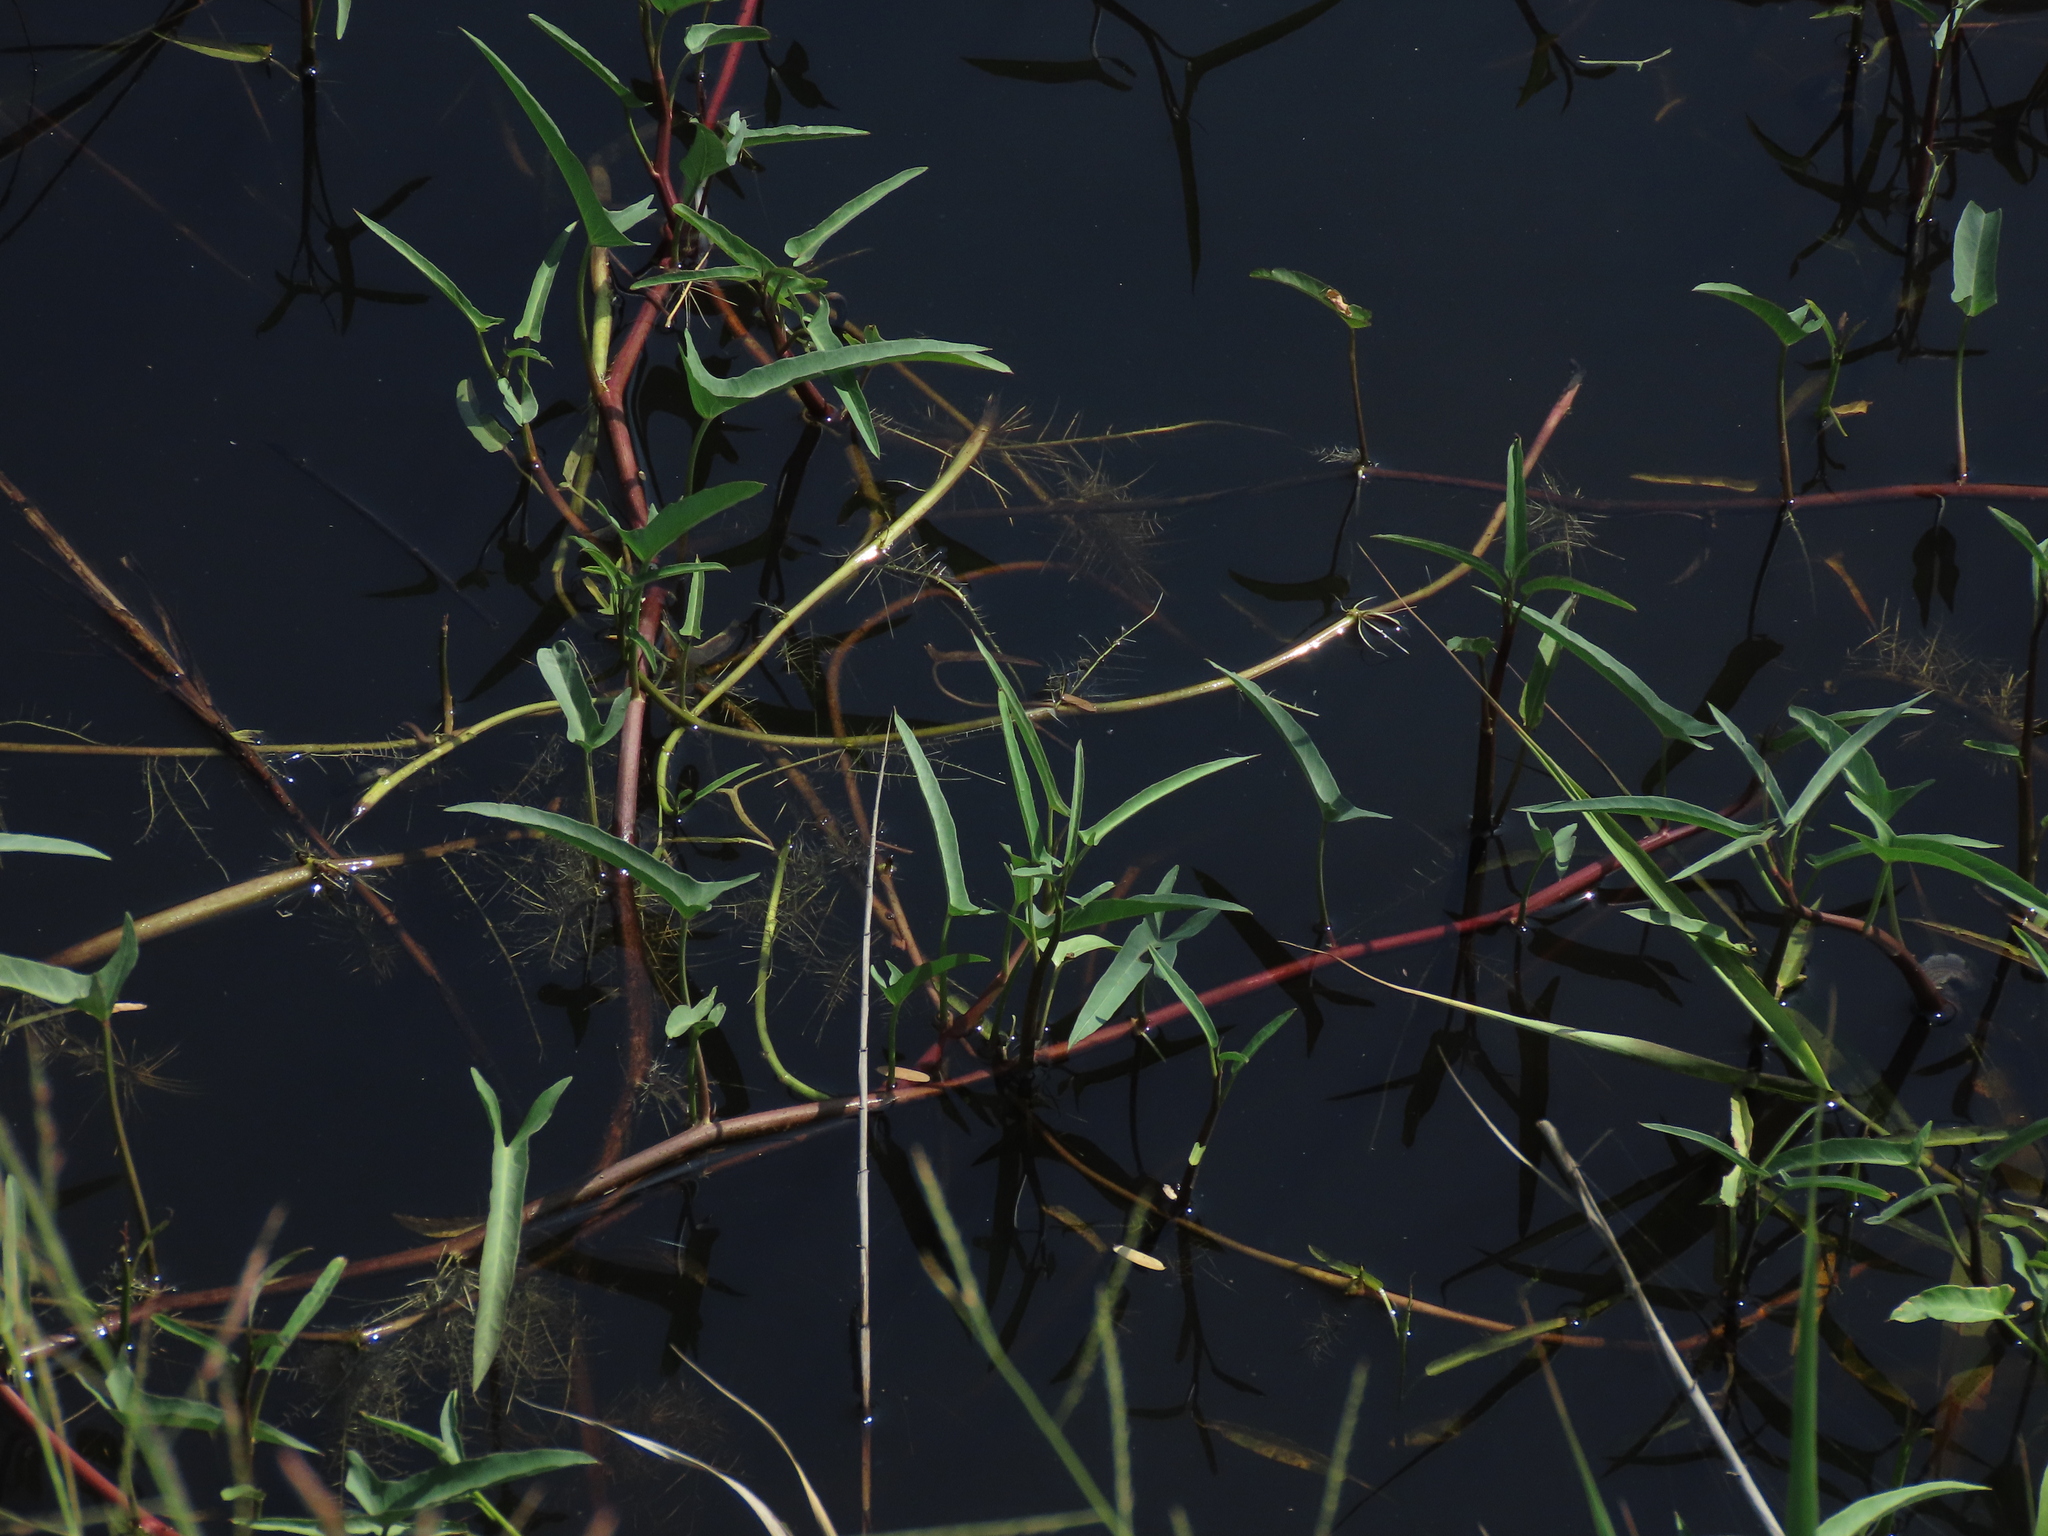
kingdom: Plantae
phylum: Tracheophyta
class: Magnoliopsida
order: Solanales
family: Convolvulaceae
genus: Ipomoea
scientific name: Ipomoea aquatica
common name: Swamp morning-glory
